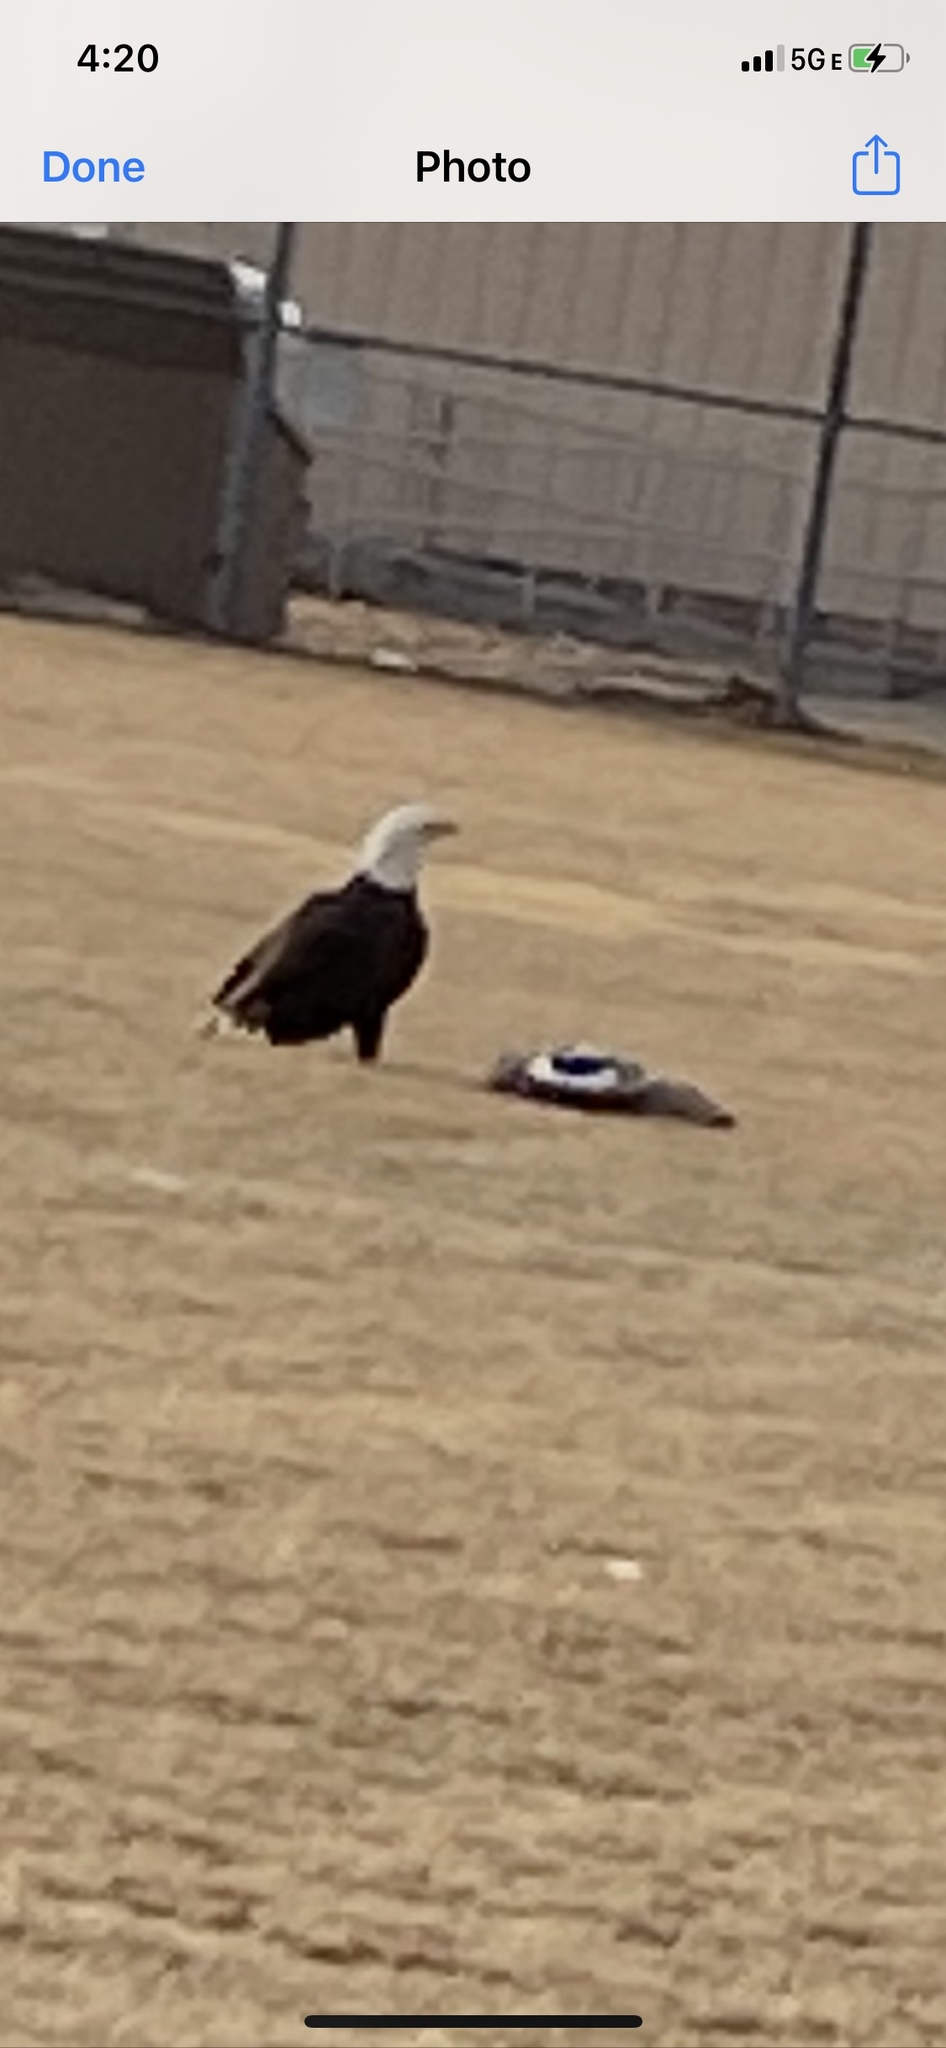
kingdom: Animalia
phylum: Chordata
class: Aves
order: Accipitriformes
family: Accipitridae
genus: Haliaeetus
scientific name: Haliaeetus leucocephalus
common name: Bald eagle
